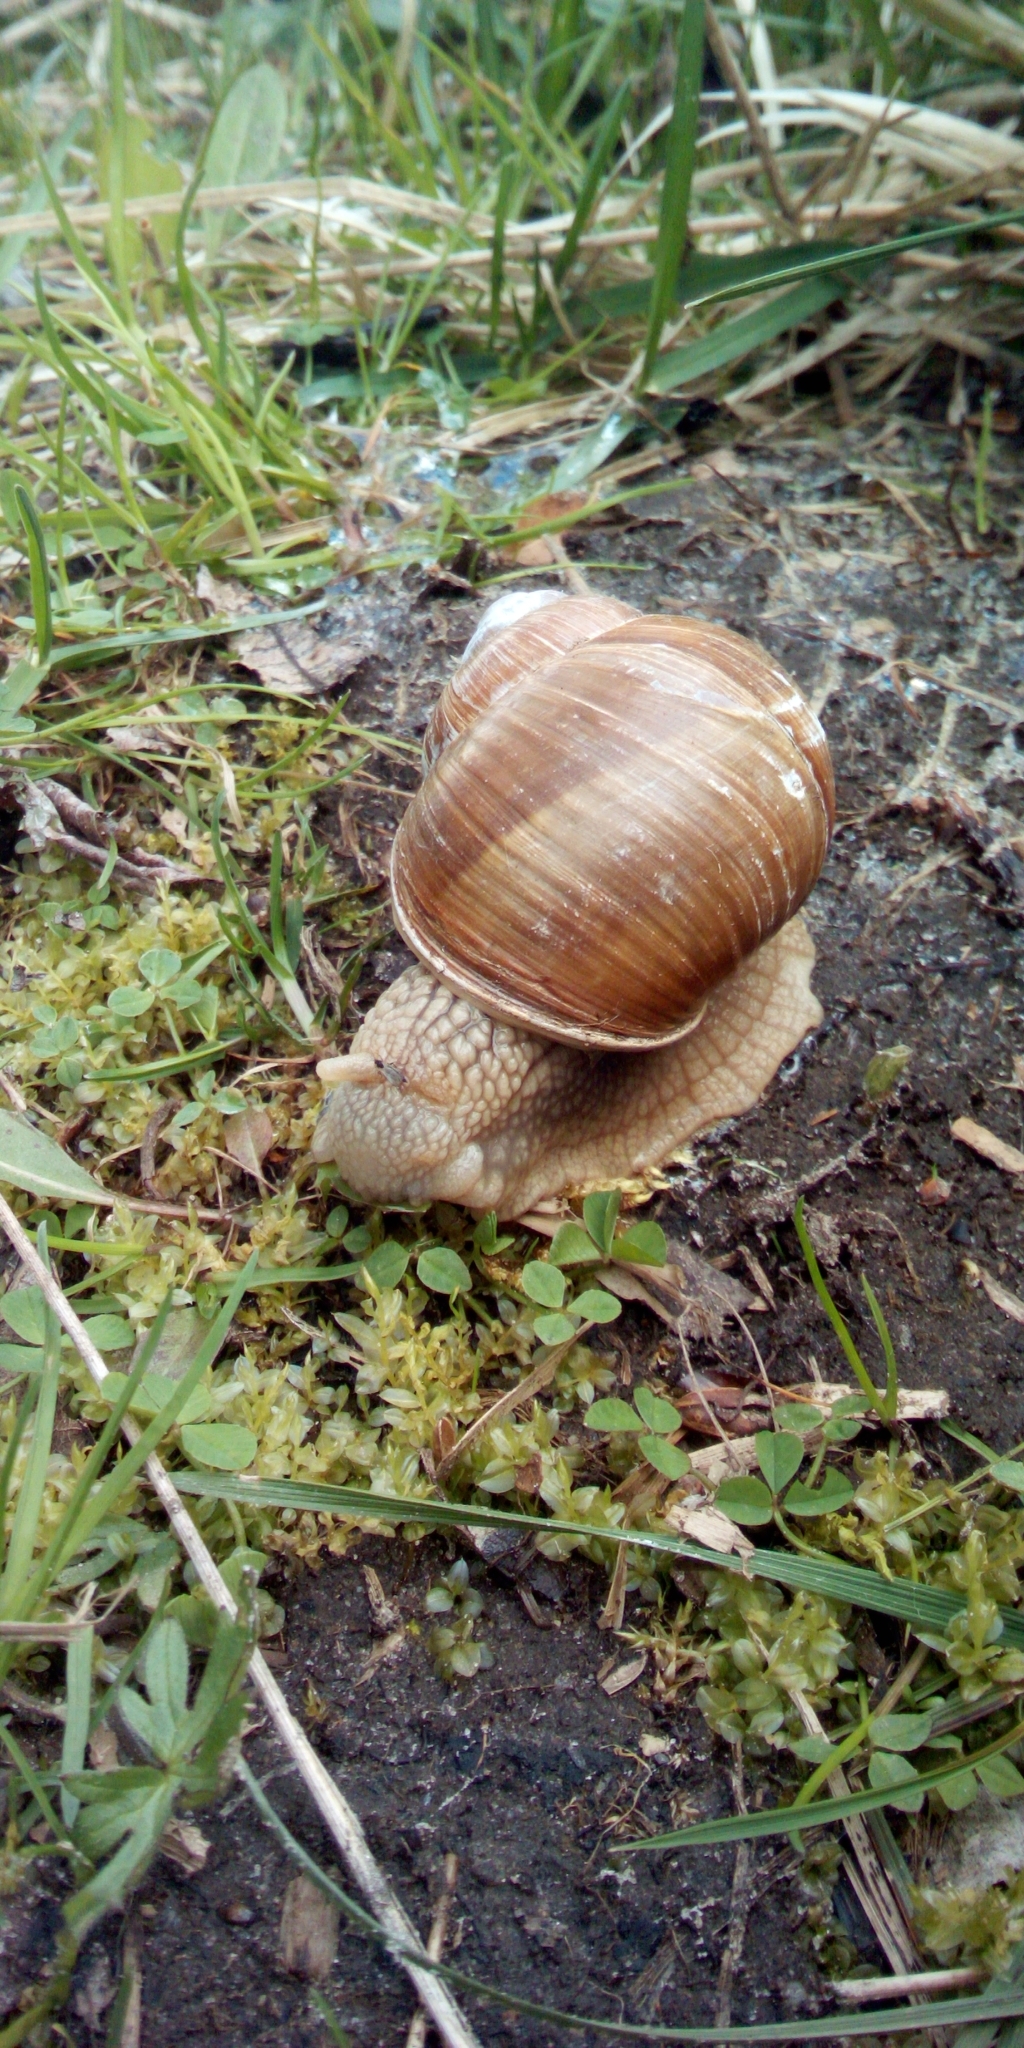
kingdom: Animalia
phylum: Mollusca
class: Gastropoda
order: Stylommatophora
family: Helicidae
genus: Helix
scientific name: Helix pomatia
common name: Roman snail
